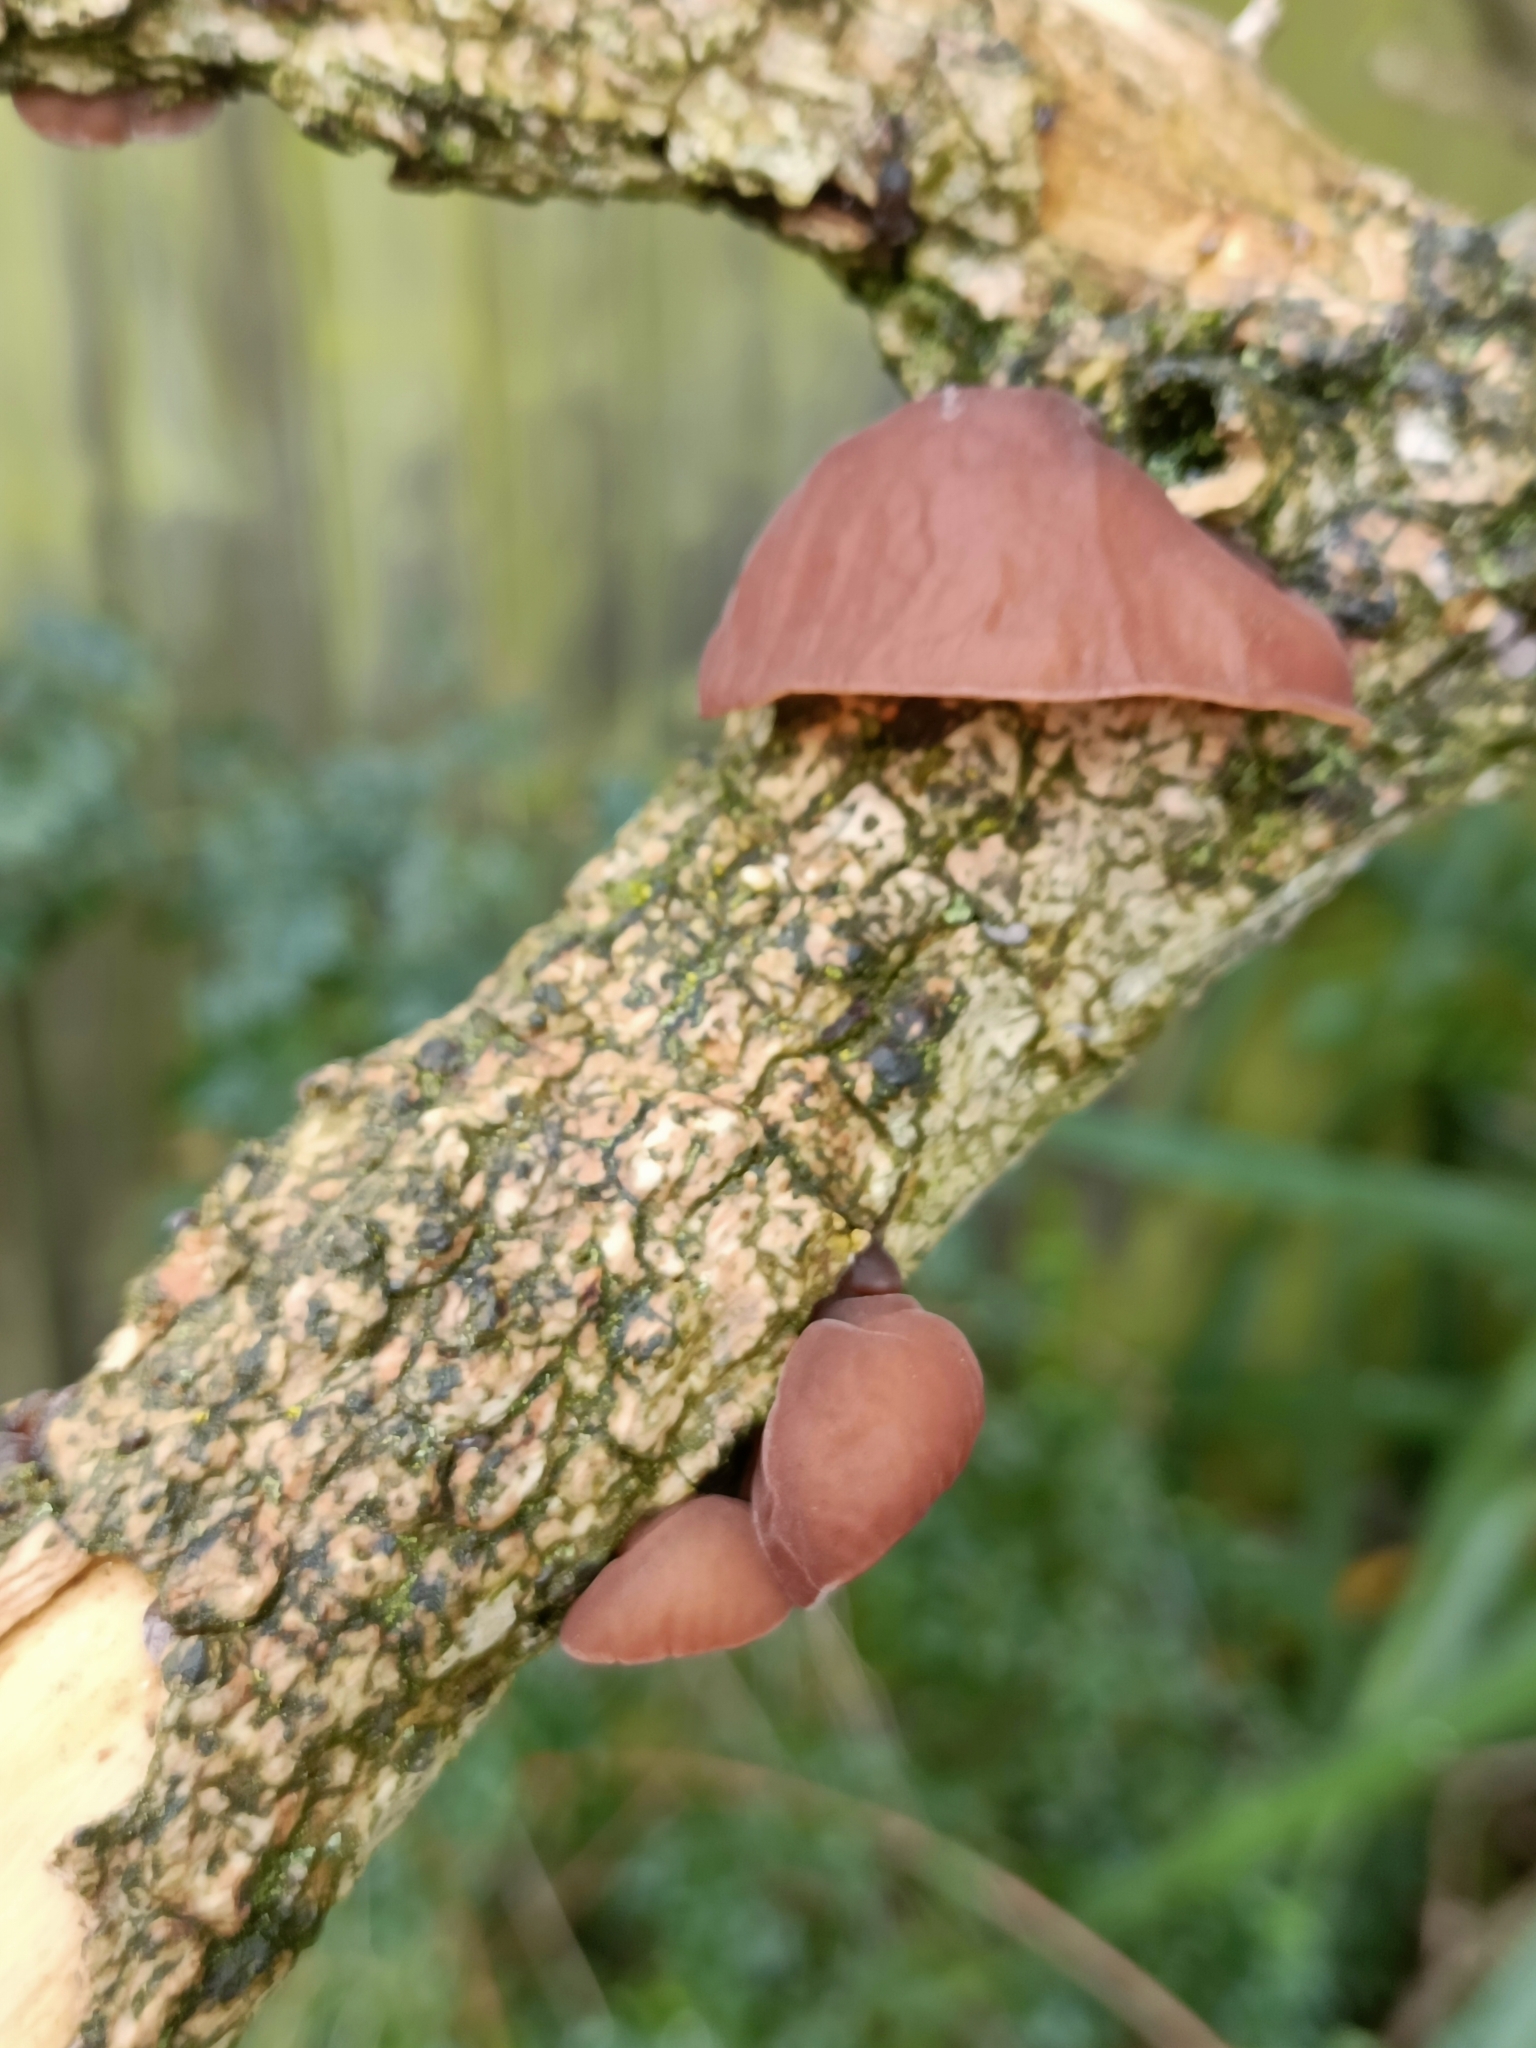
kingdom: Fungi
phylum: Basidiomycota
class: Agaricomycetes
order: Auriculariales
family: Auriculariaceae
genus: Auricularia
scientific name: Auricularia auricula-judae
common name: Jelly ear
